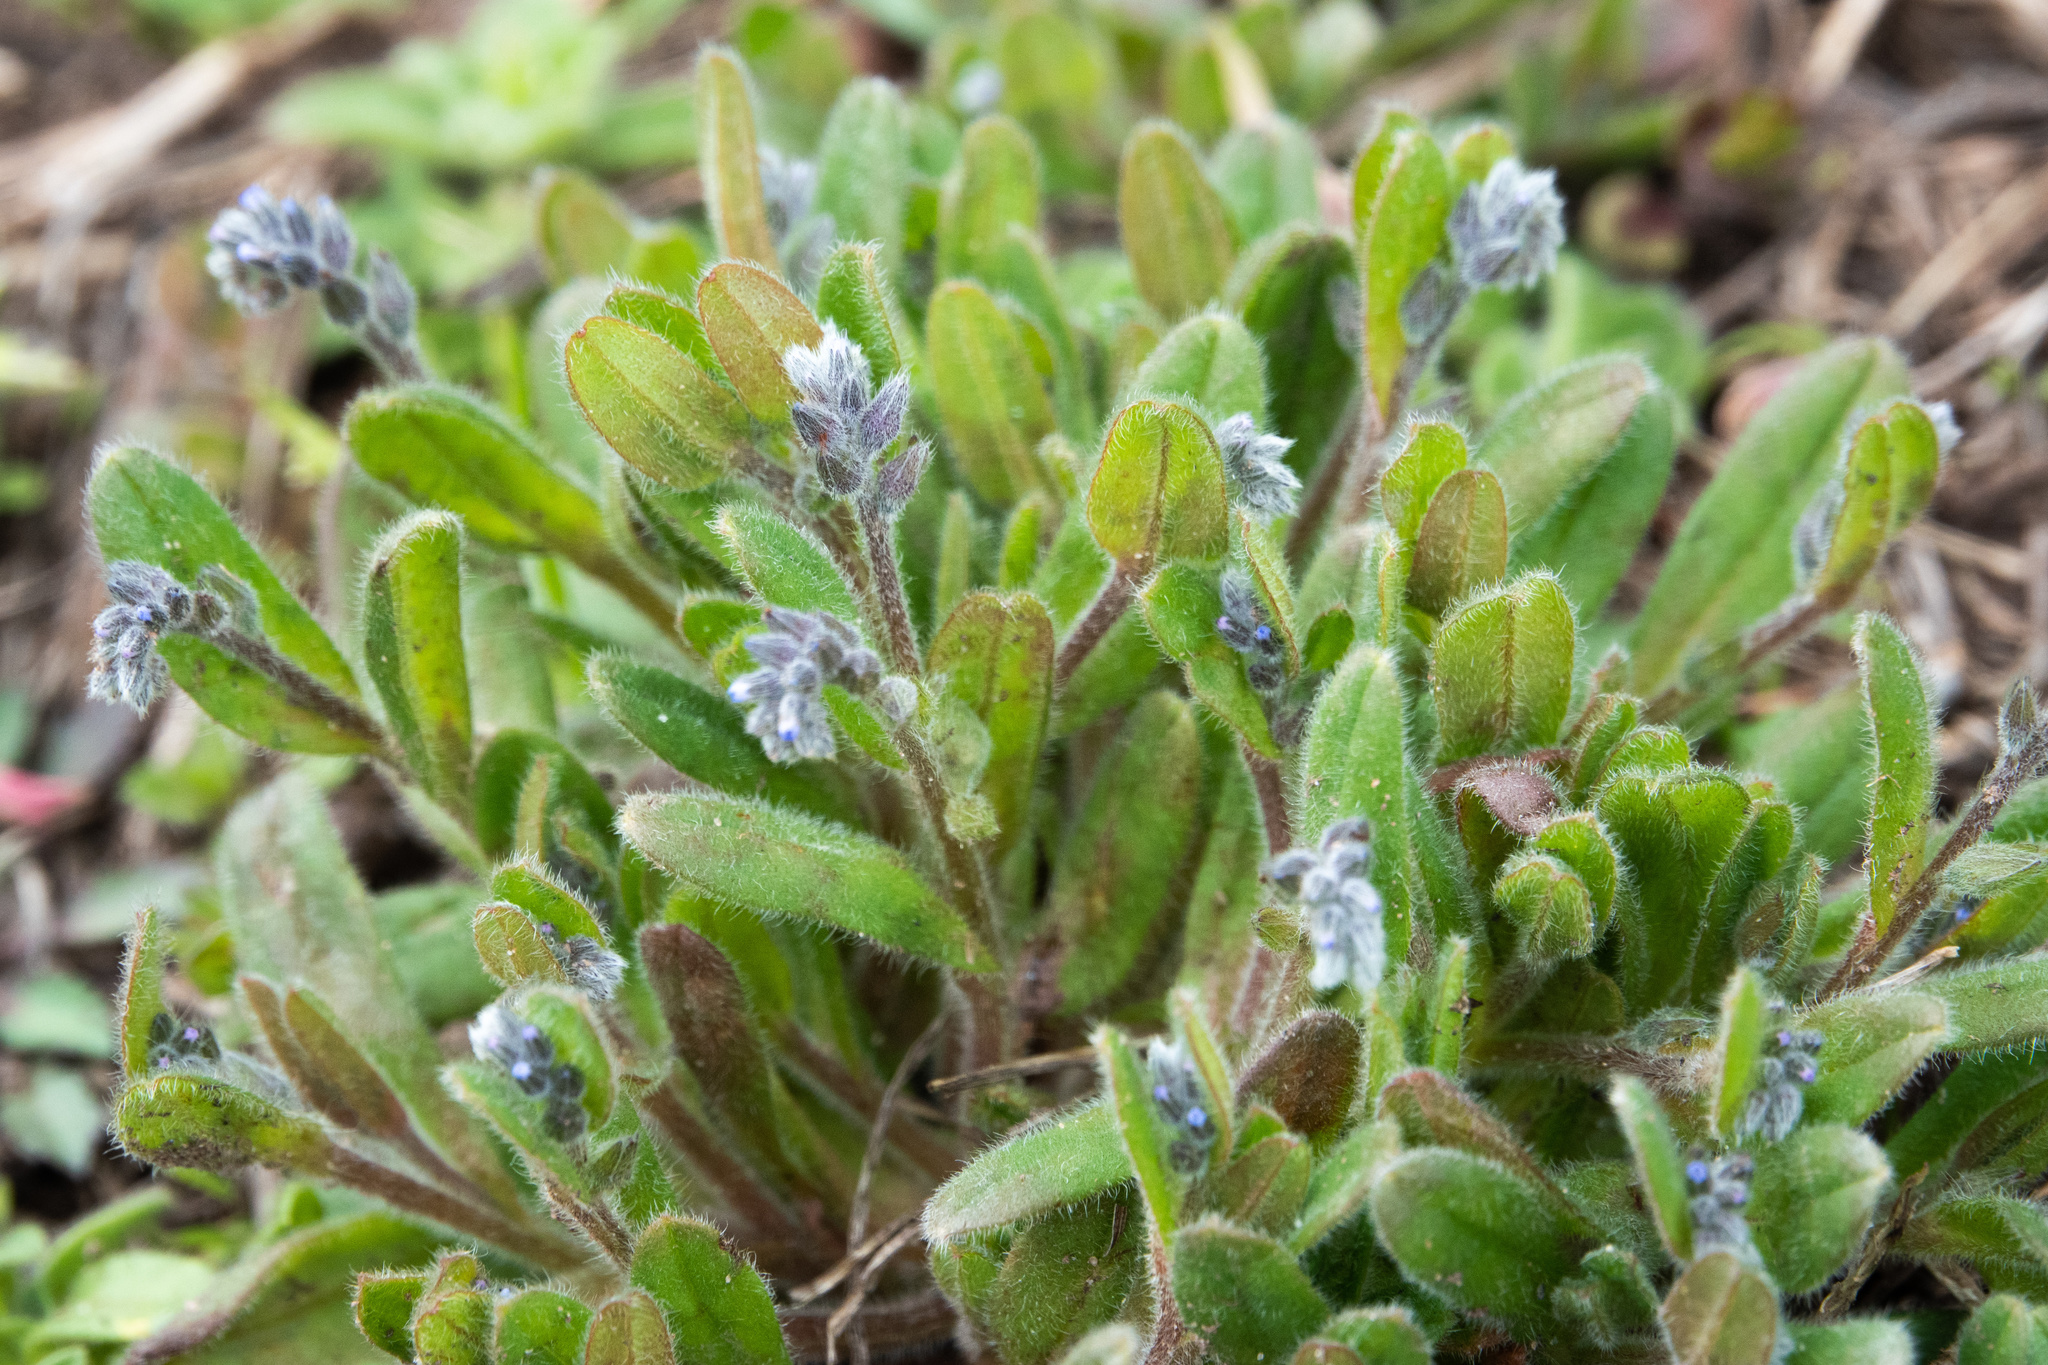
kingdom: Plantae
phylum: Tracheophyta
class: Magnoliopsida
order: Boraginales
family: Boraginaceae
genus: Myosotis
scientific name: Myosotis stricta
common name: Strict forget-me-not
